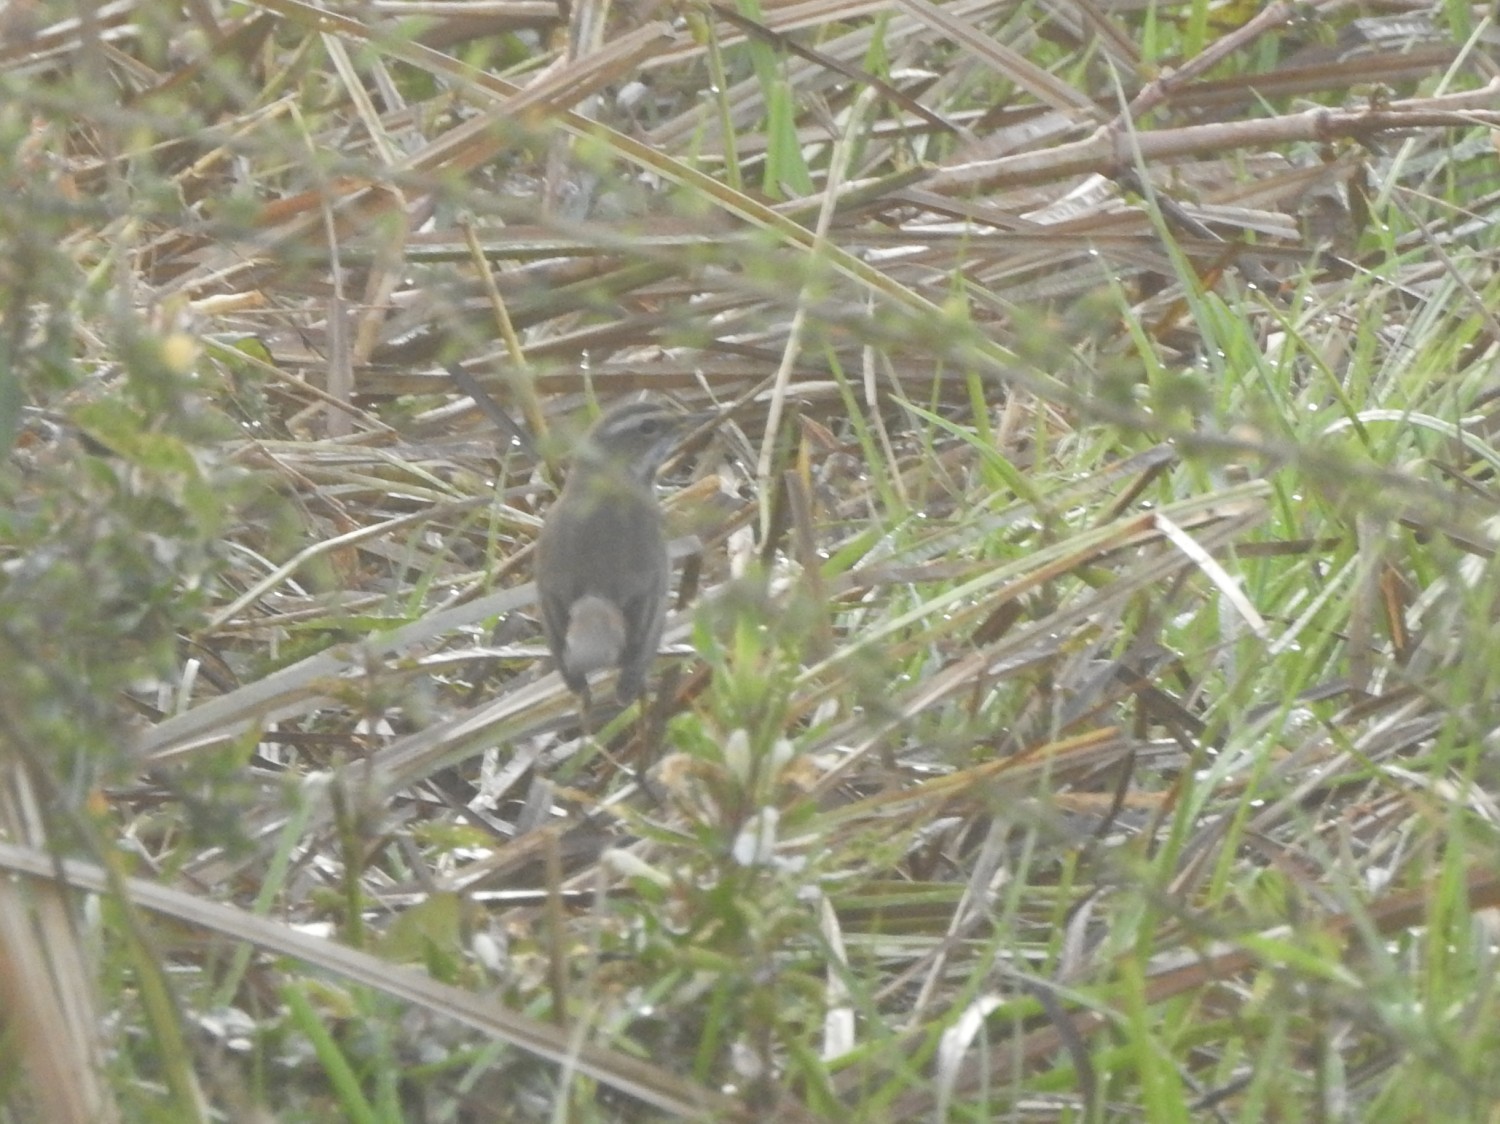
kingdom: Animalia
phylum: Chordata
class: Aves
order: Passeriformes
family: Muscicapidae
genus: Luscinia
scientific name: Luscinia svecica
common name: Bluethroat
